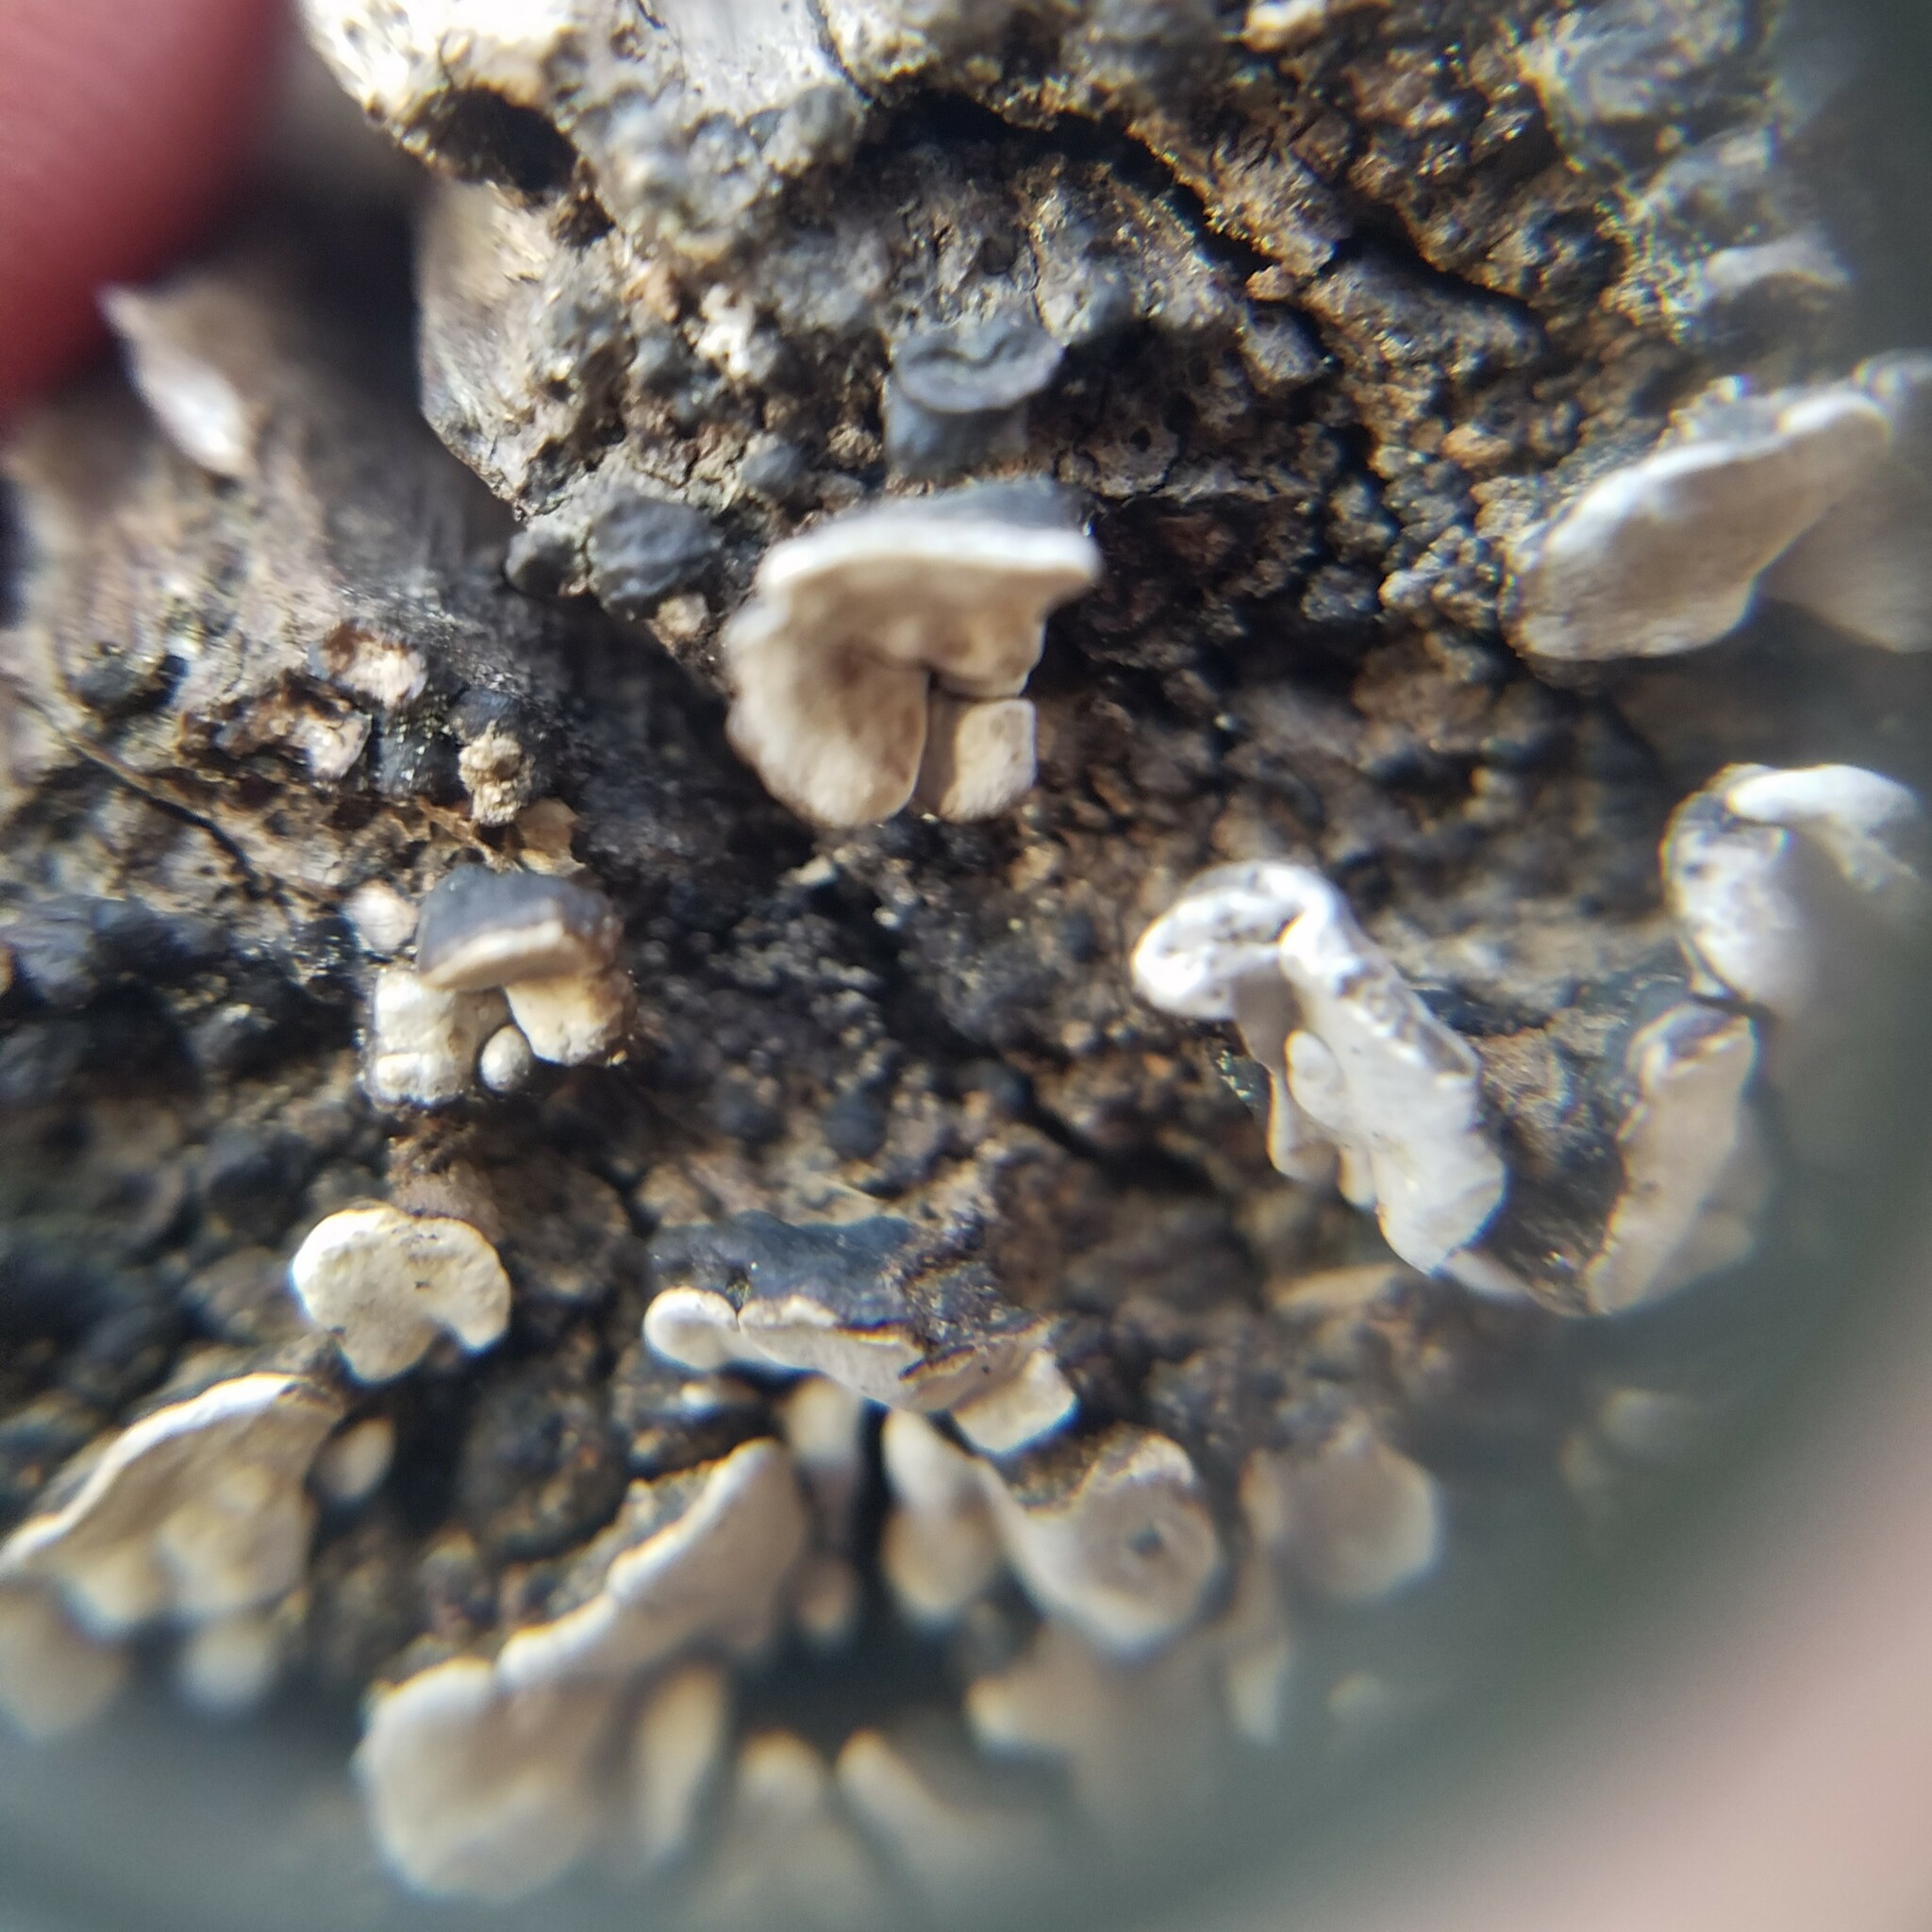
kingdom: Fungi
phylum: Basidiomycota
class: Agaricomycetes
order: Russulales
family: Stereaceae
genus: Xylobolus
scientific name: Xylobolus frustulatus
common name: Ceramic parchment
